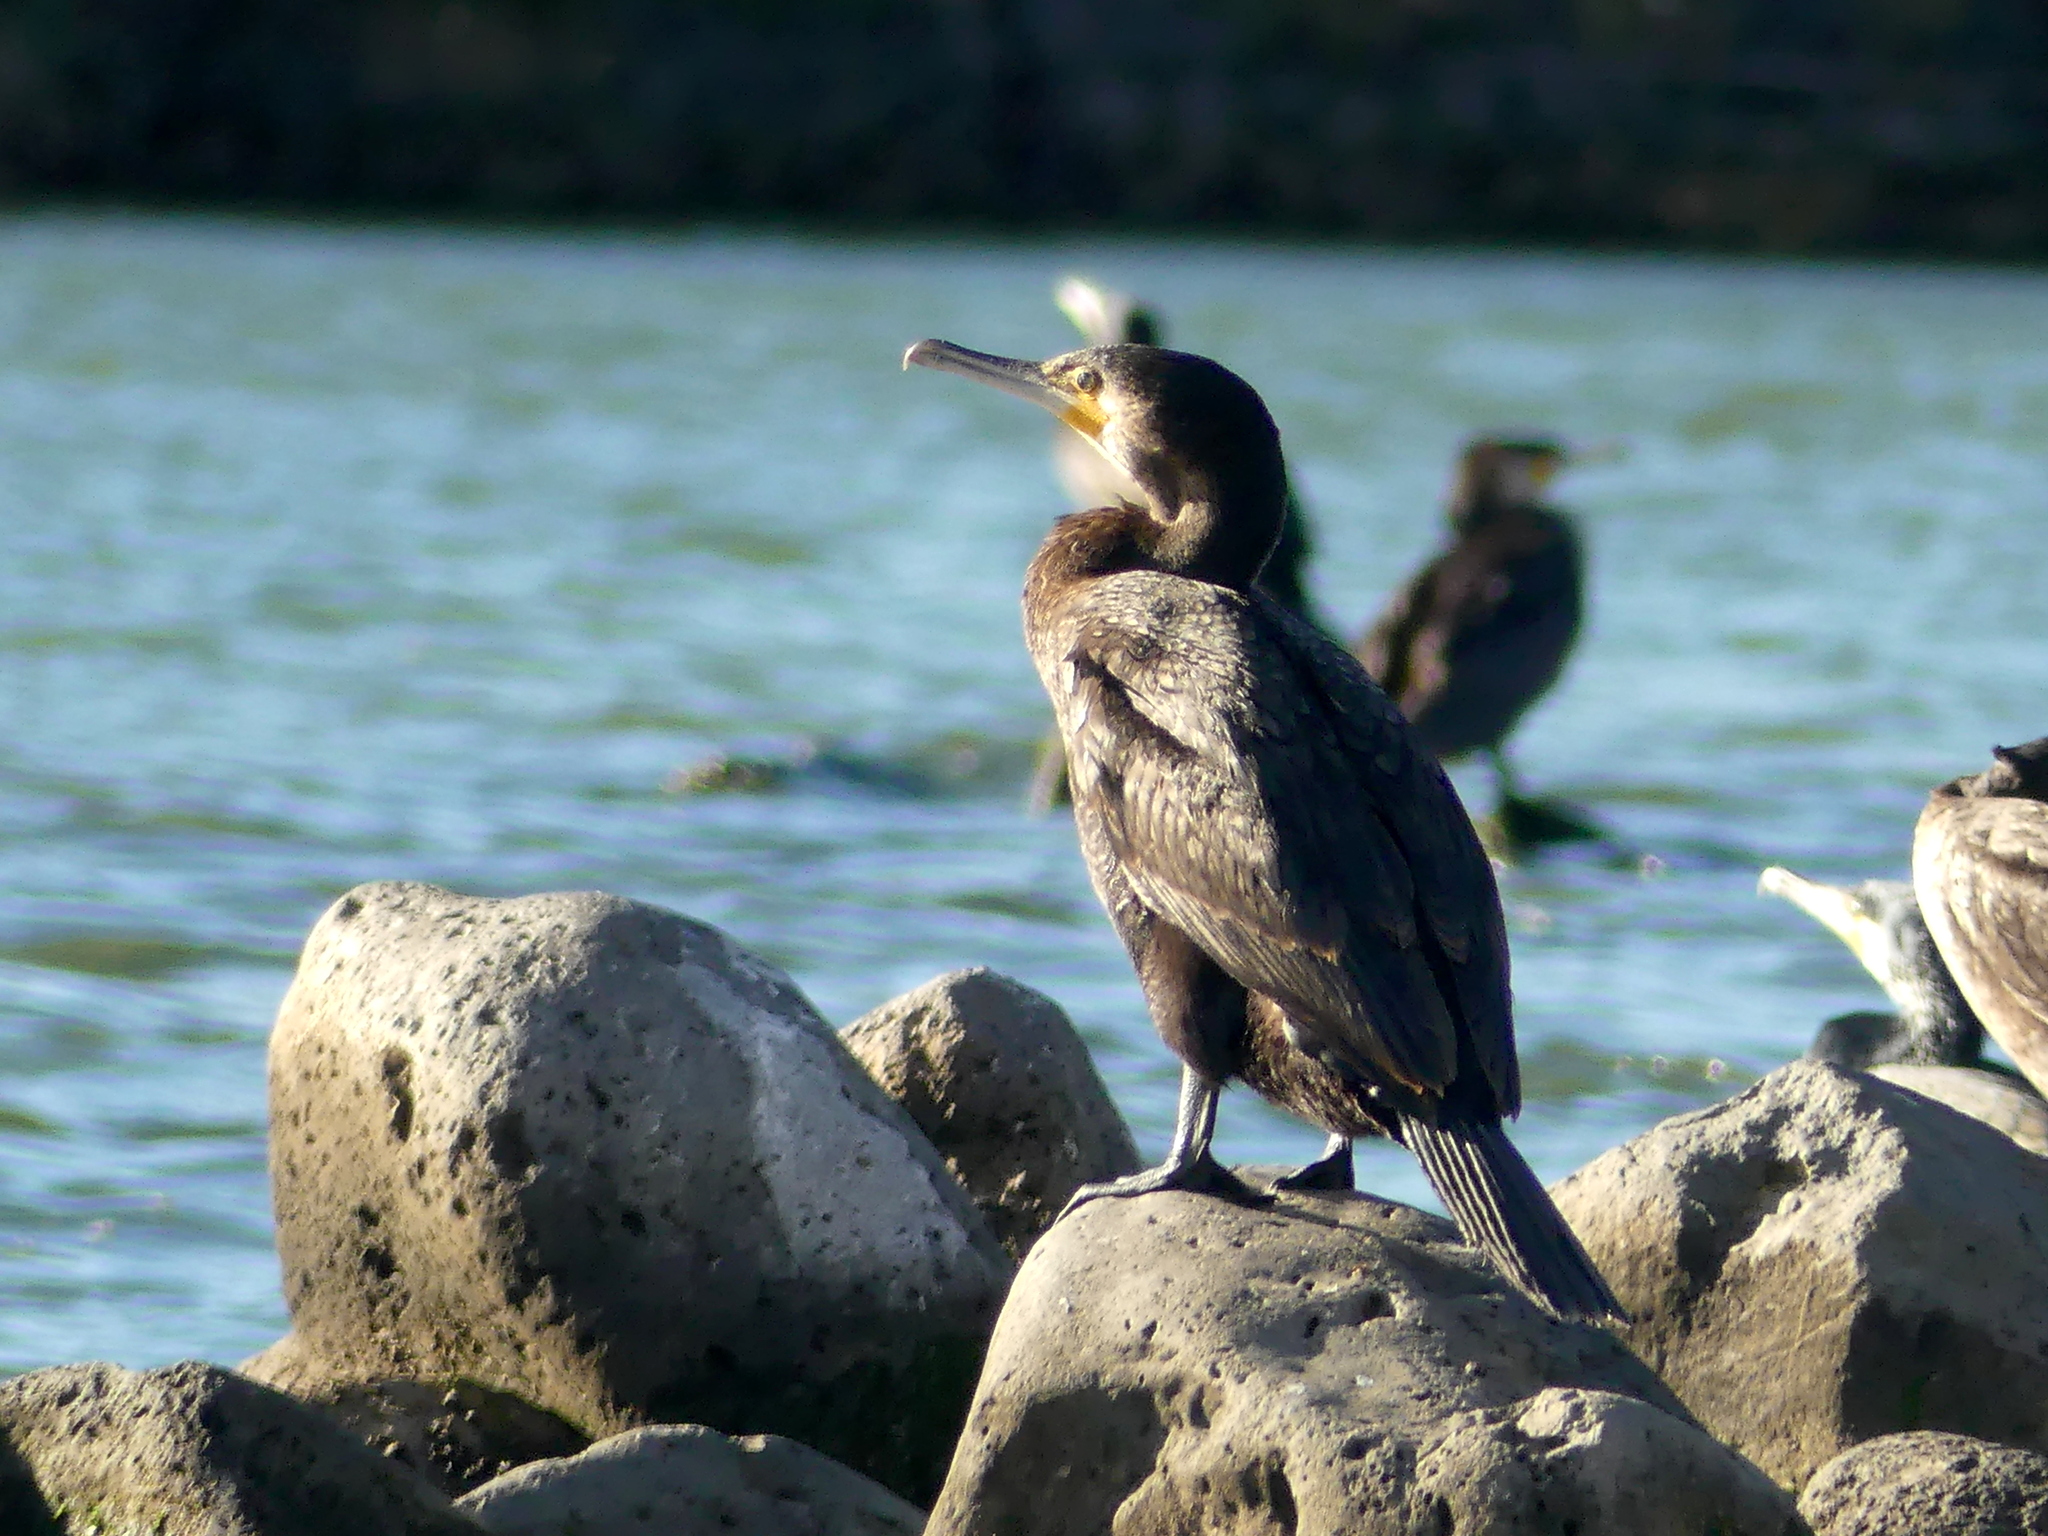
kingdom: Animalia
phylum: Chordata
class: Aves
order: Suliformes
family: Phalacrocoracidae
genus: Phalacrocorax
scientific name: Phalacrocorax carbo
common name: Great cormorant
